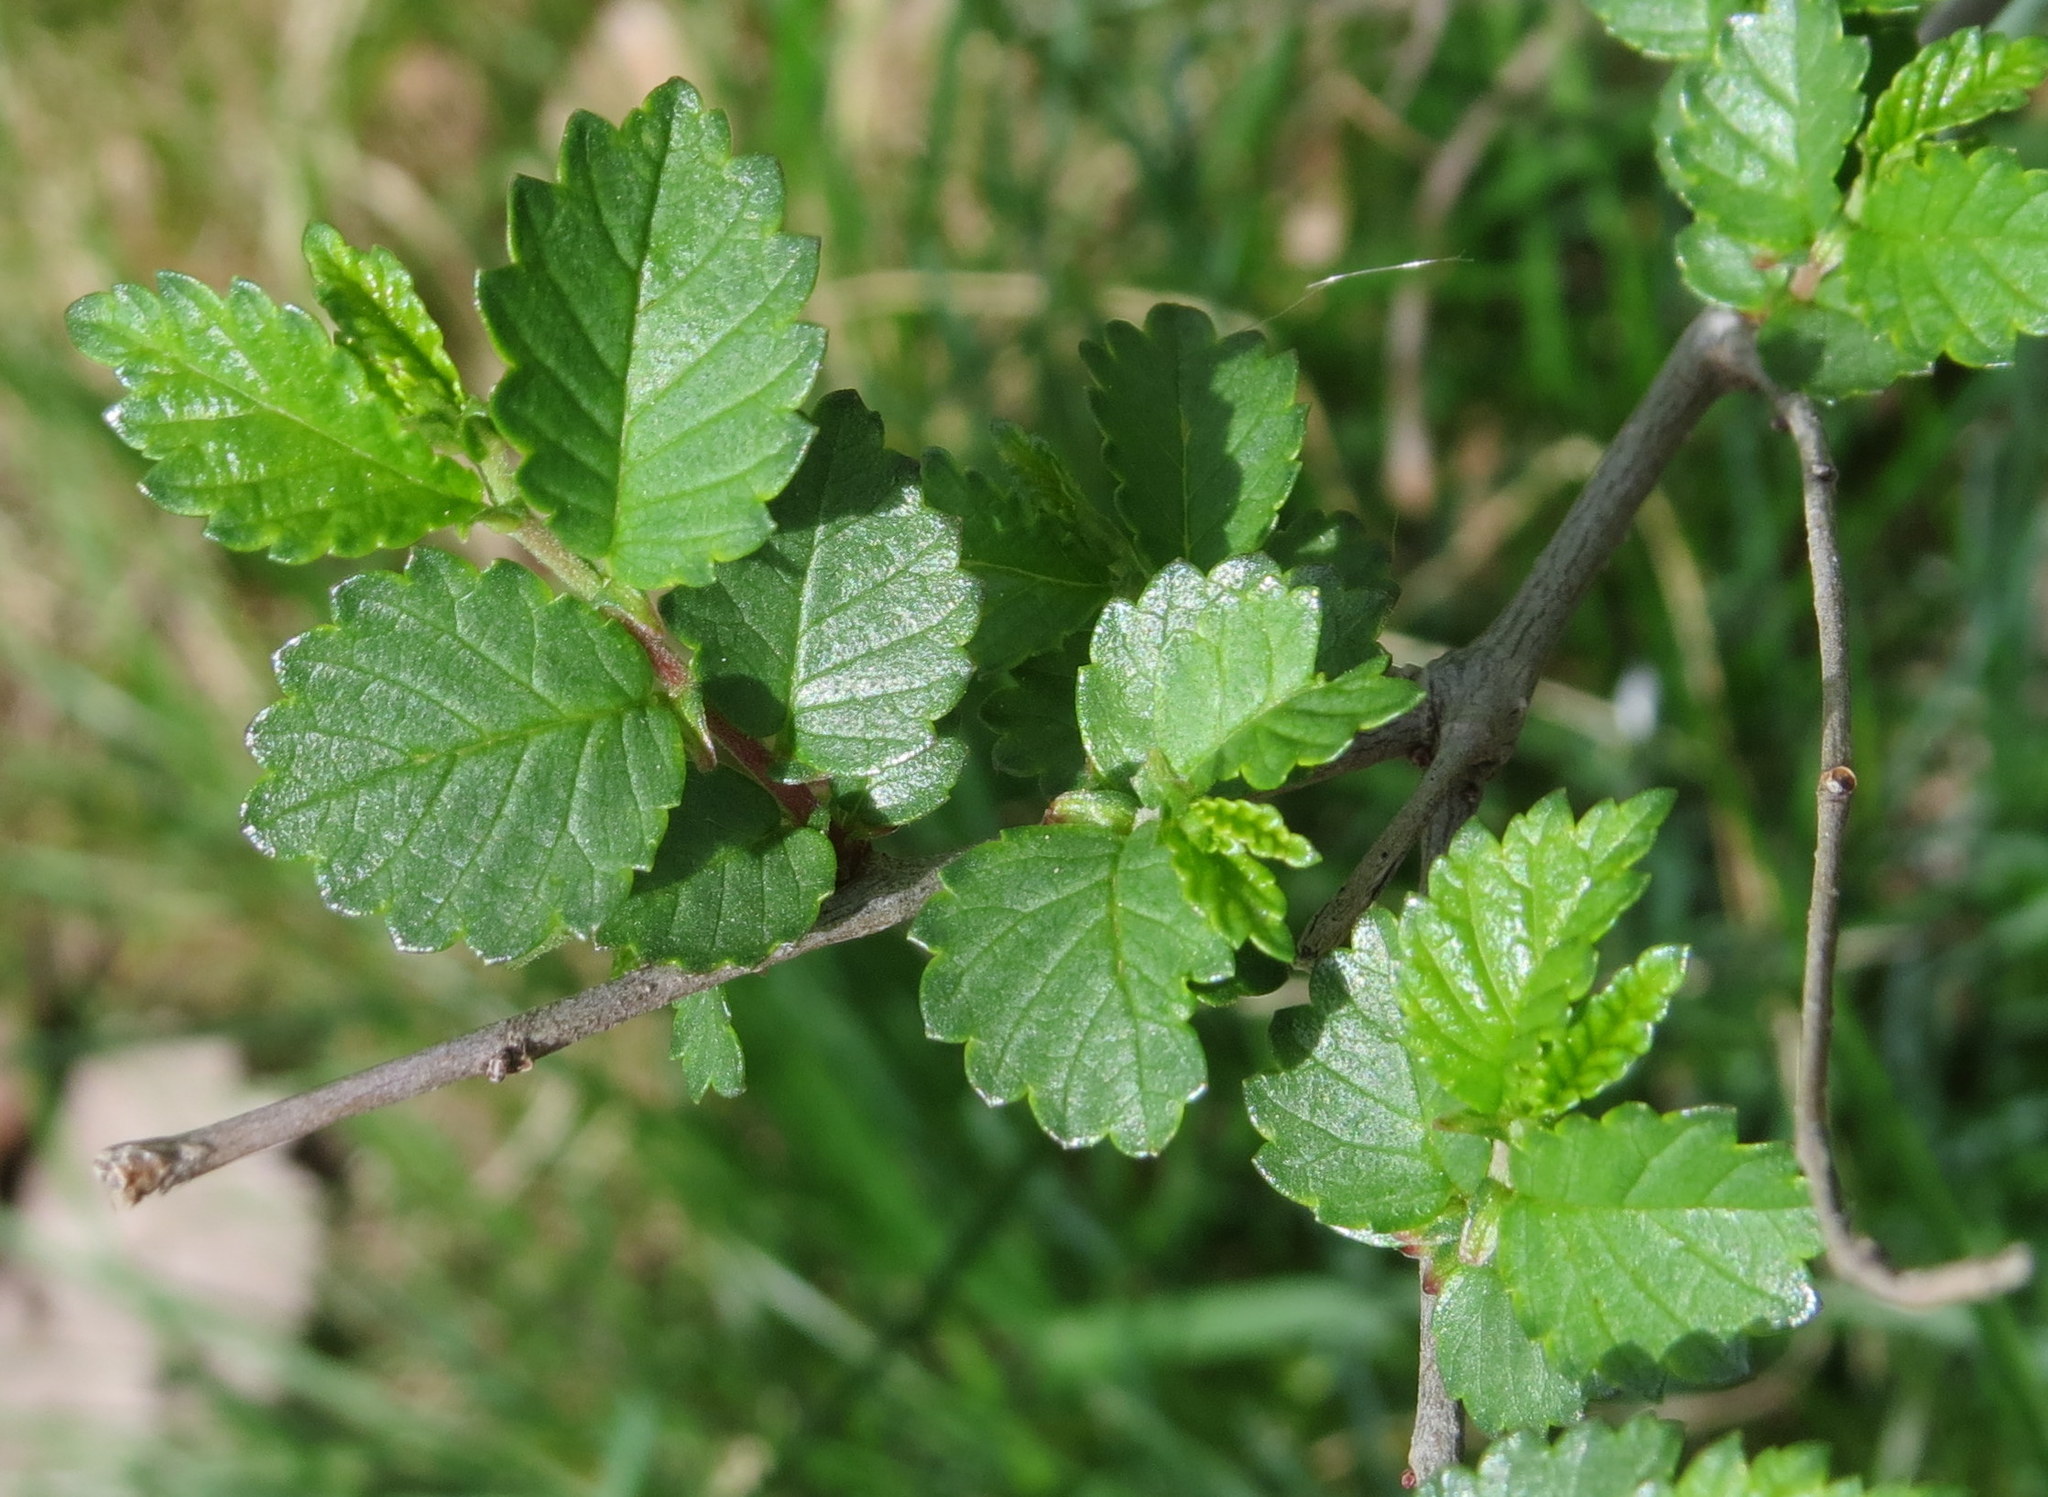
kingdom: Plantae
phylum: Tracheophyta
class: Magnoliopsida
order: Rosales
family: Ulmaceae
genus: Ulmus
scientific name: Ulmus pumila
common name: Siberian elm
